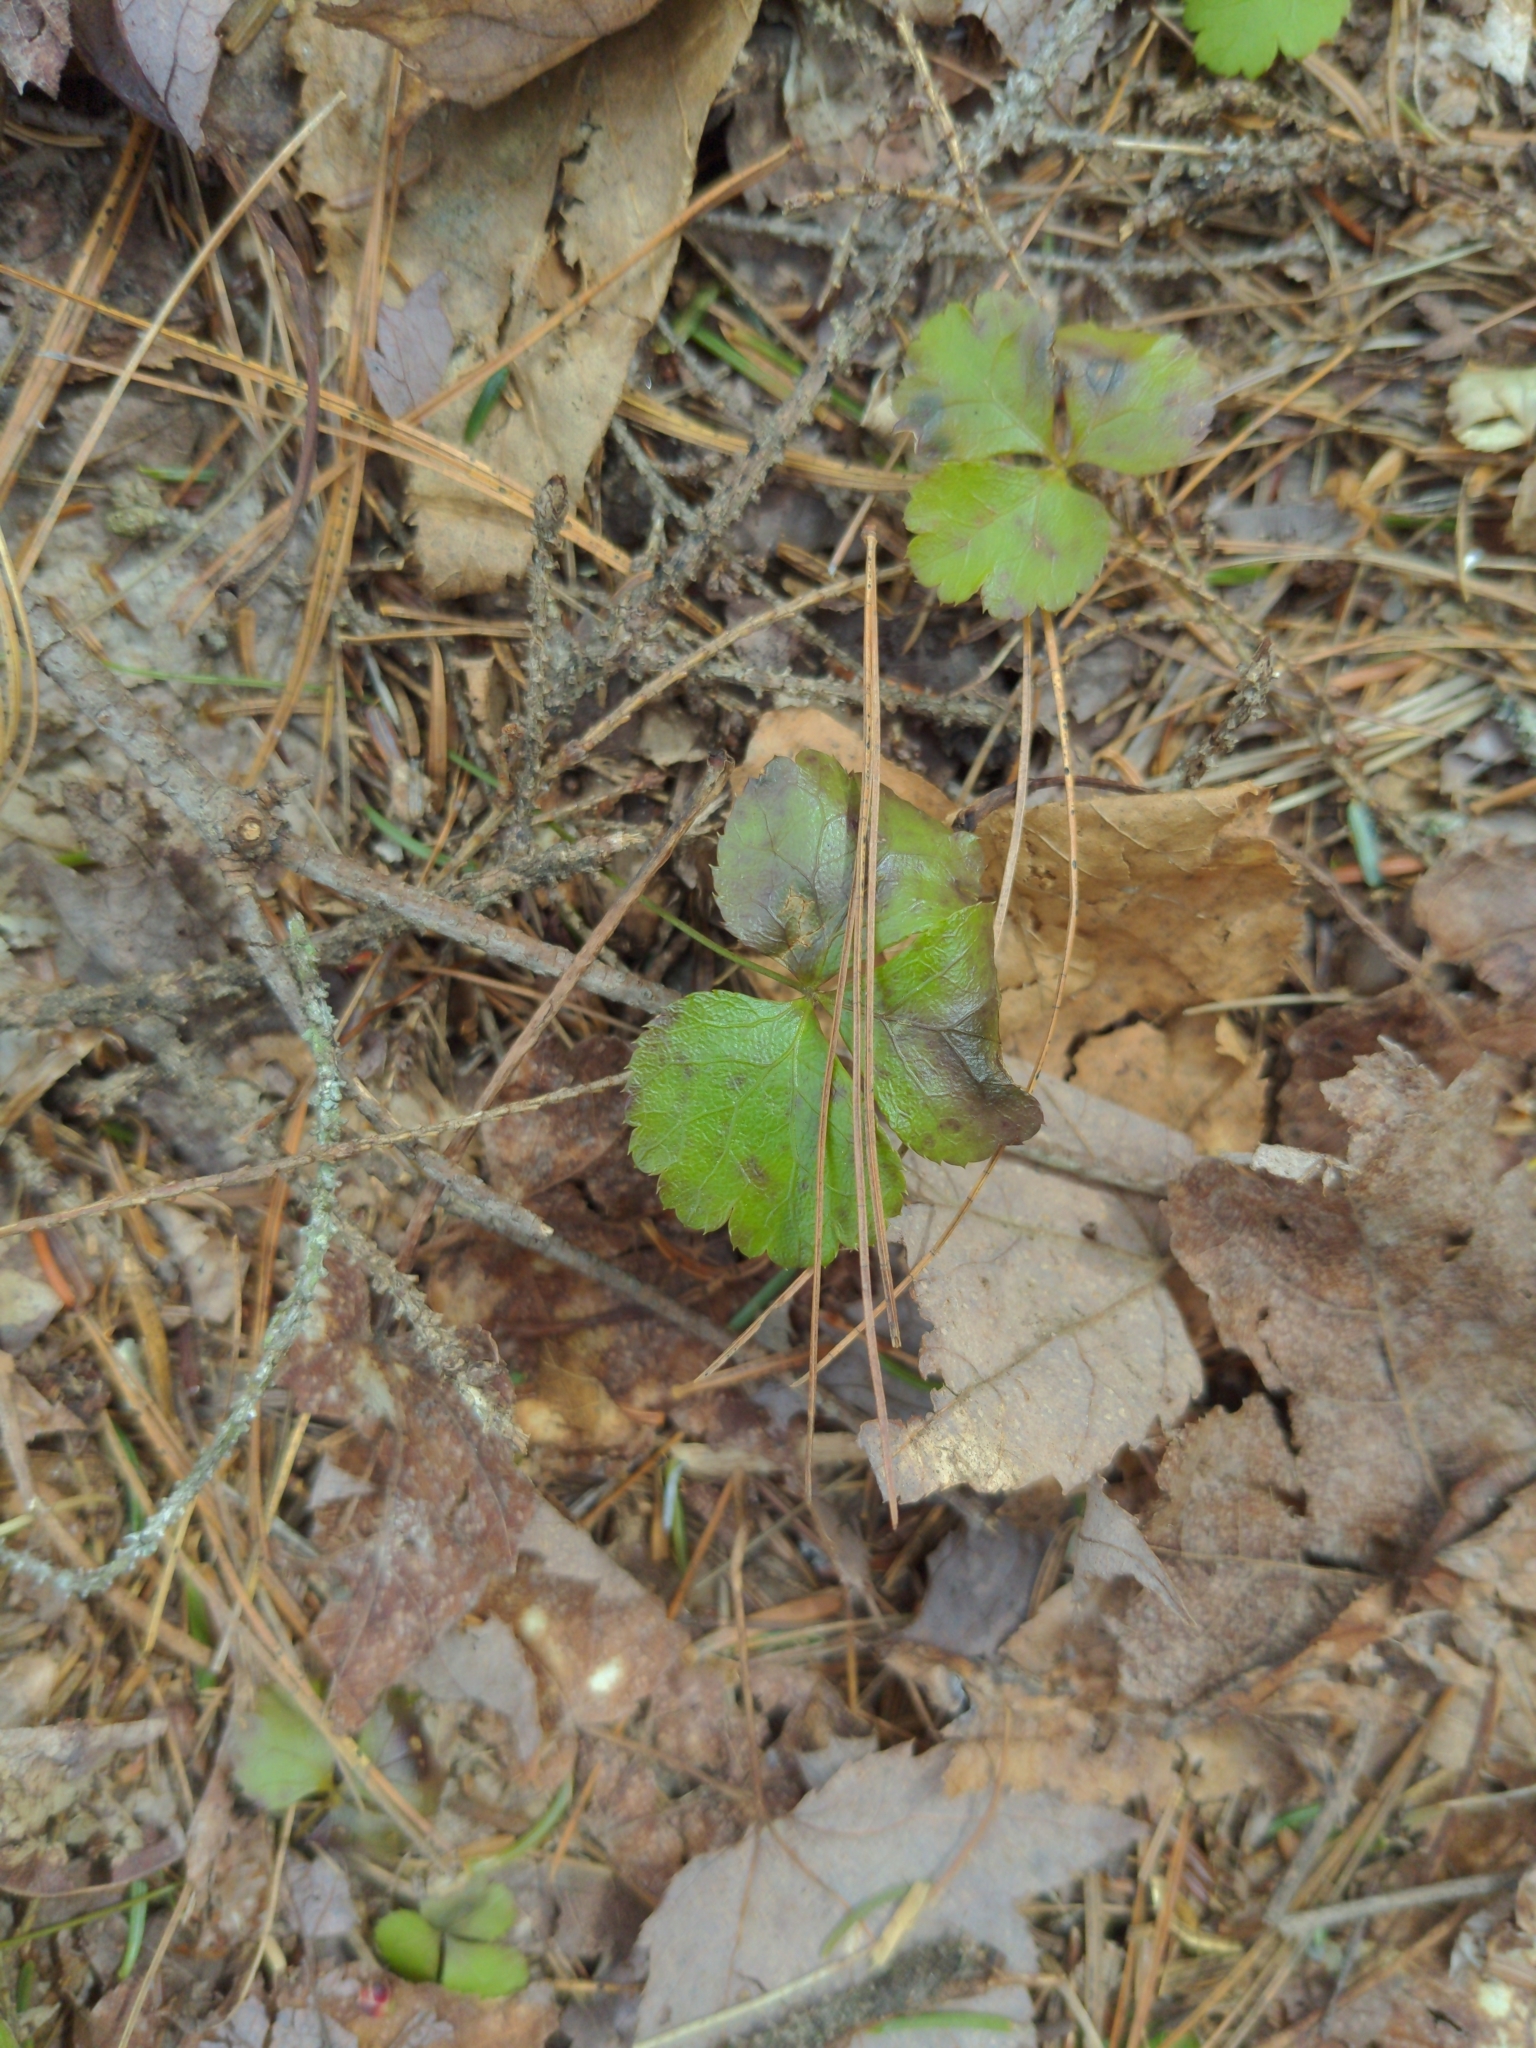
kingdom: Plantae
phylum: Tracheophyta
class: Magnoliopsida
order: Ranunculales
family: Ranunculaceae
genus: Coptis
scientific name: Coptis trifolia
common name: Canker-root
